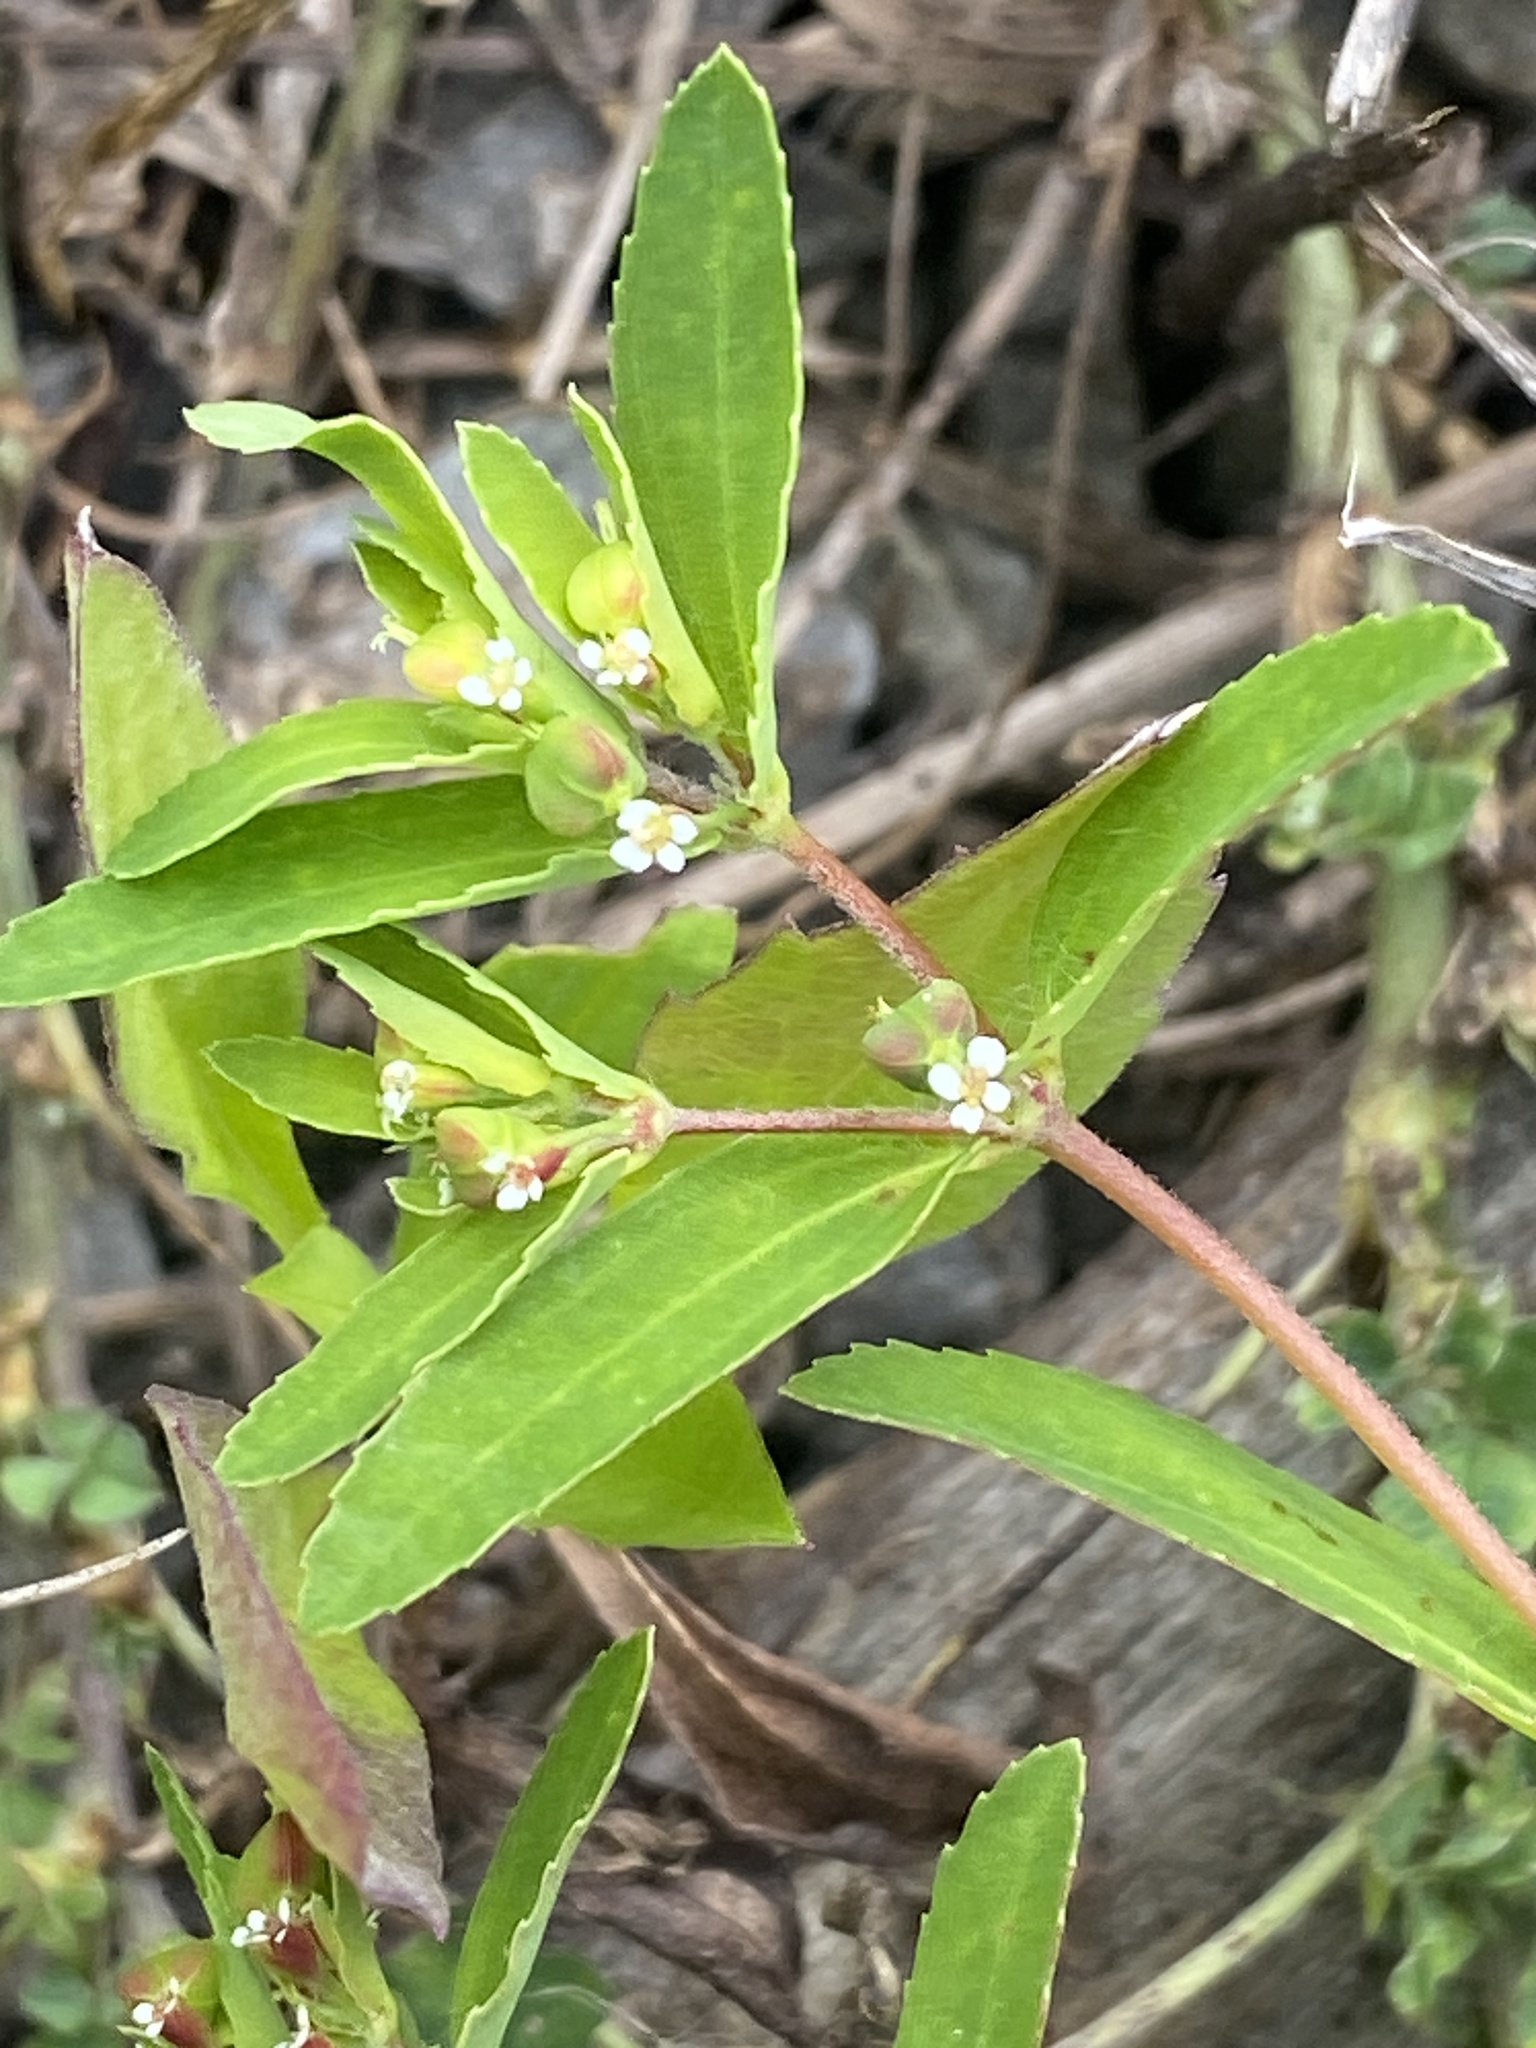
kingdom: Plantae
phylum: Tracheophyta
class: Magnoliopsida
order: Malpighiales
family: Euphorbiaceae
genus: Euphorbia
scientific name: Euphorbia nutans
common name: Eyebane
